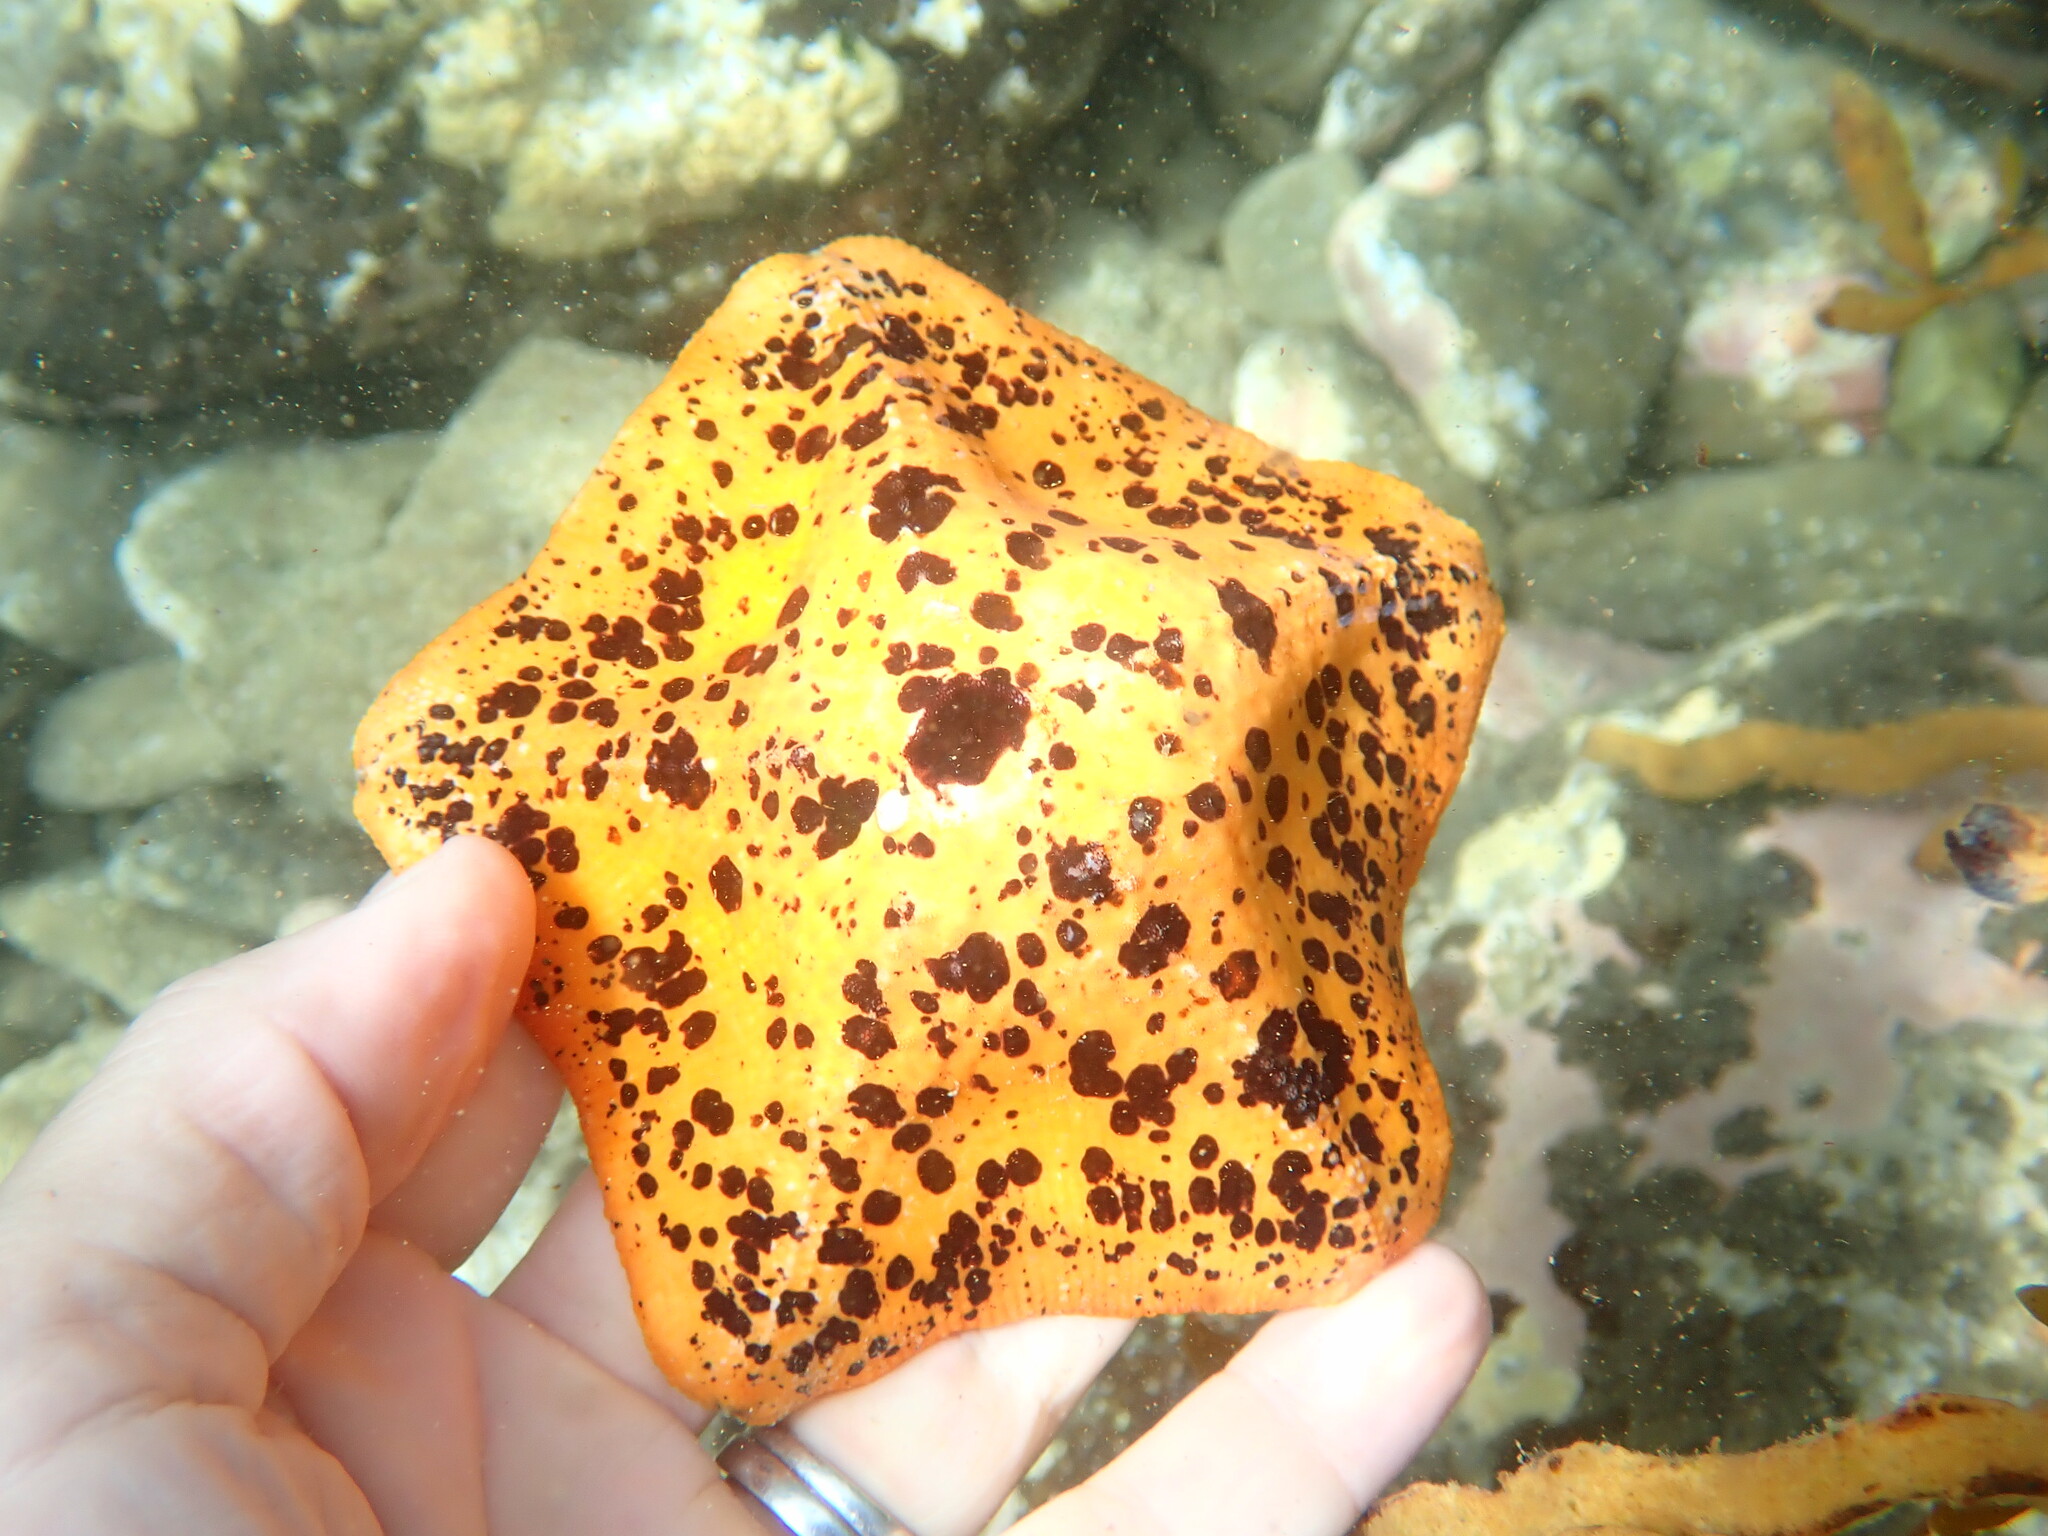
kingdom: Animalia
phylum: Echinodermata
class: Asteroidea
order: Valvatida
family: Asterinidae
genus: Stegnaster
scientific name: Stegnaster inflatus
